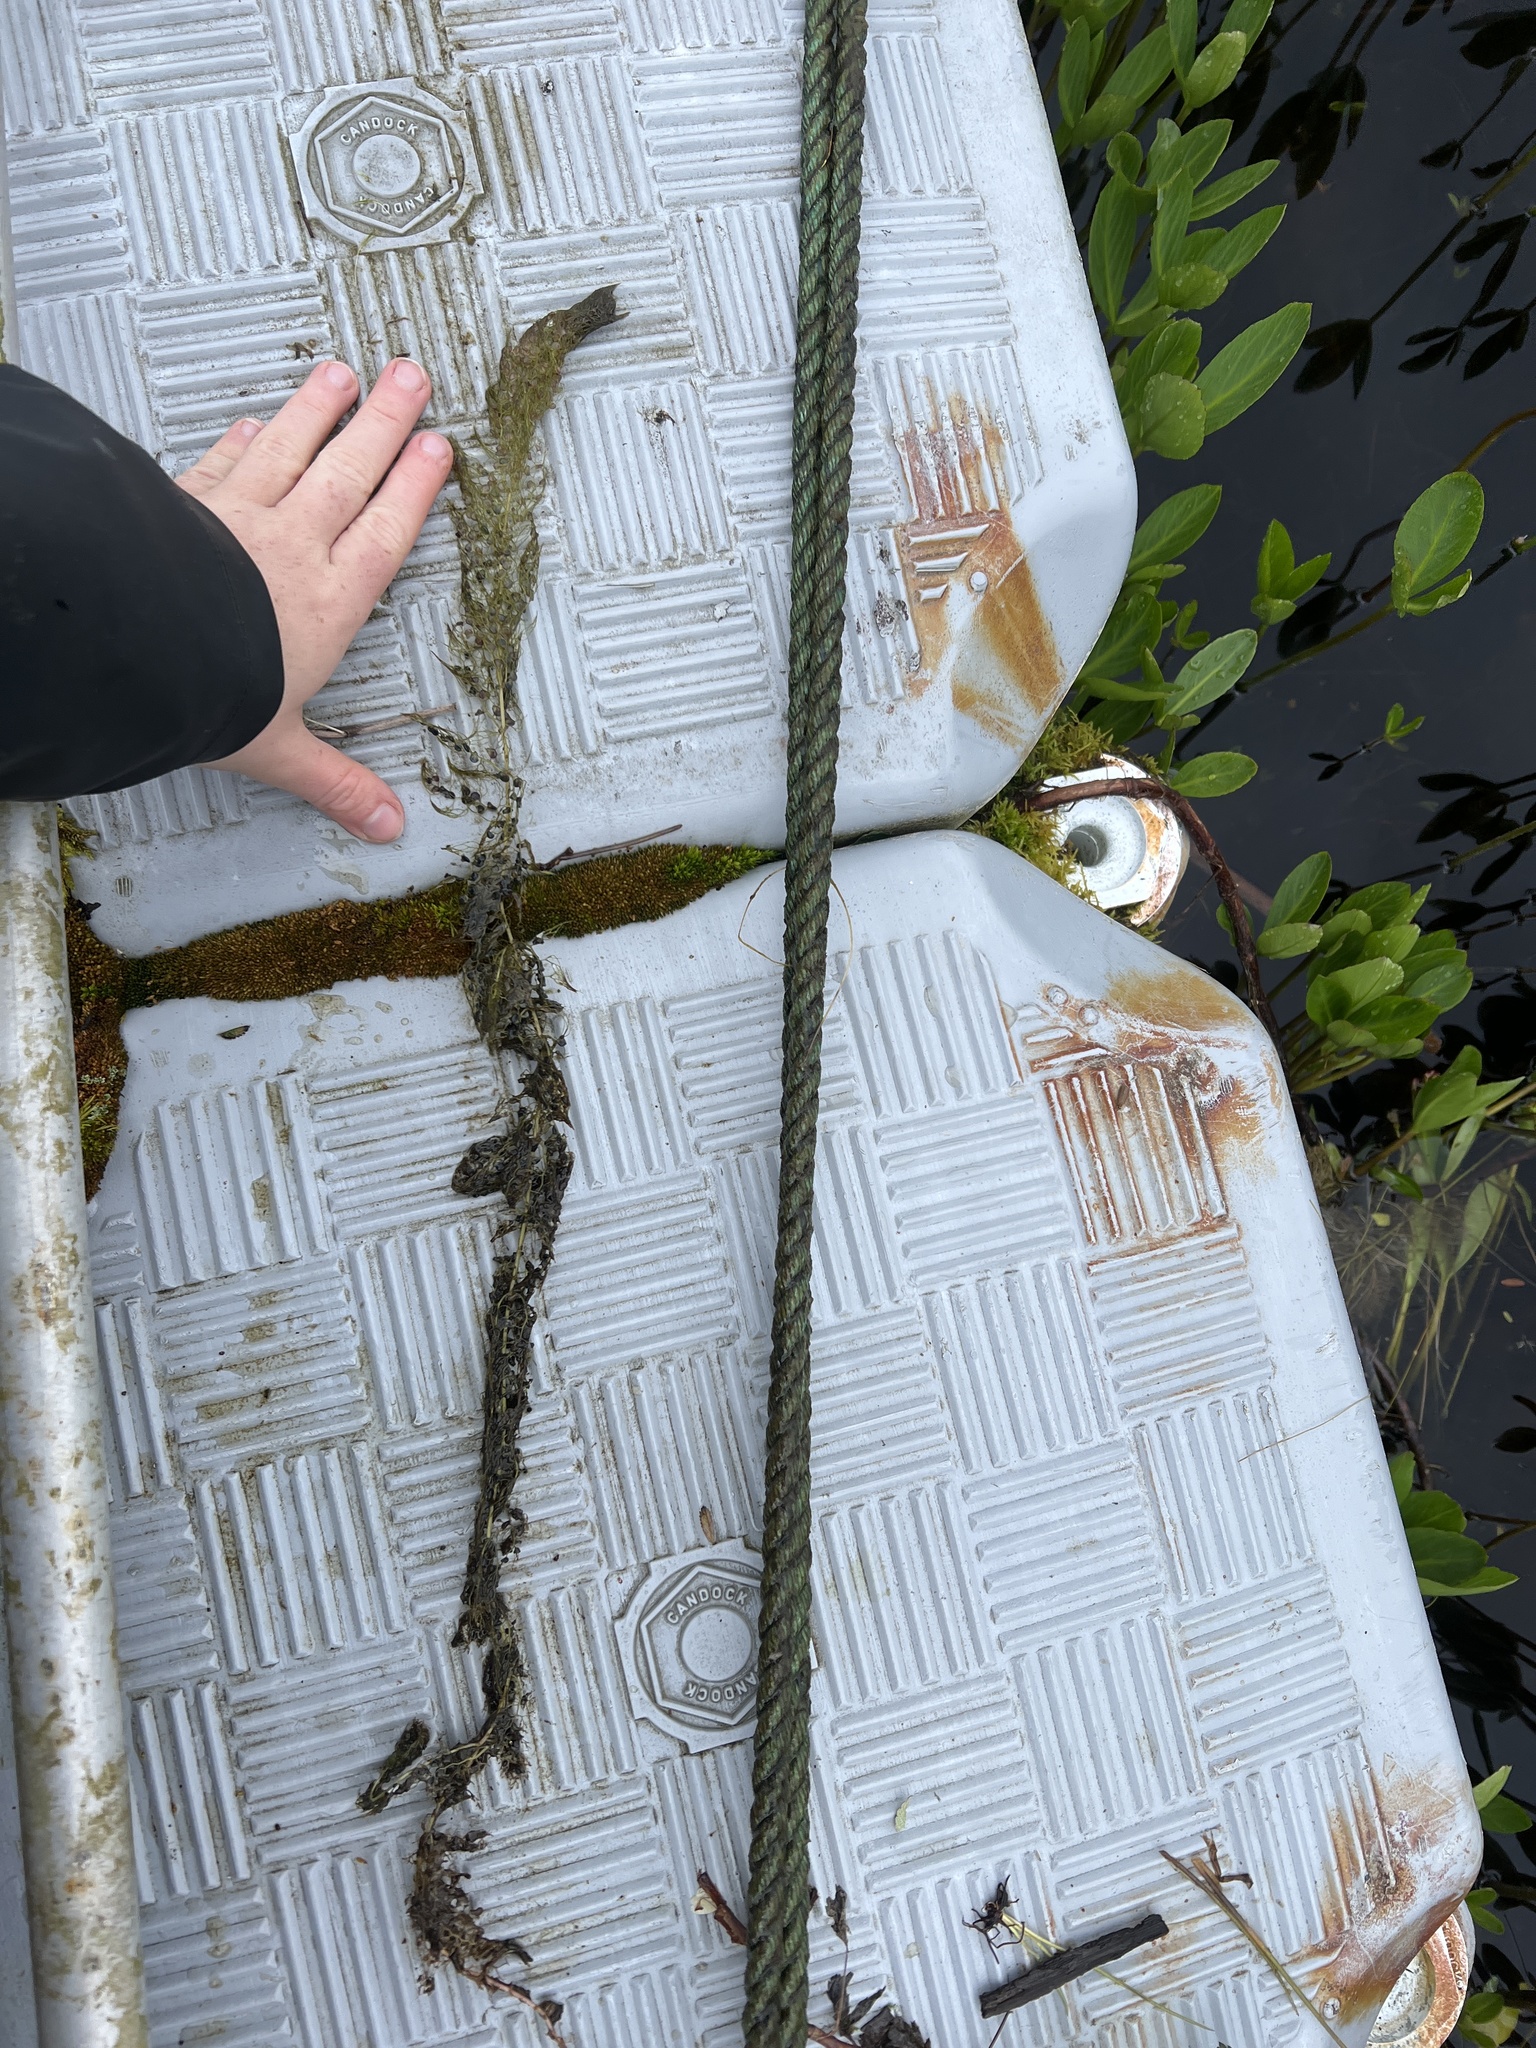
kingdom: Plantae
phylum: Tracheophyta
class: Magnoliopsida
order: Lamiales
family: Lentibulariaceae
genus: Utricularia
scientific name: Utricularia macrorhiza
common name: Common bladderwort
